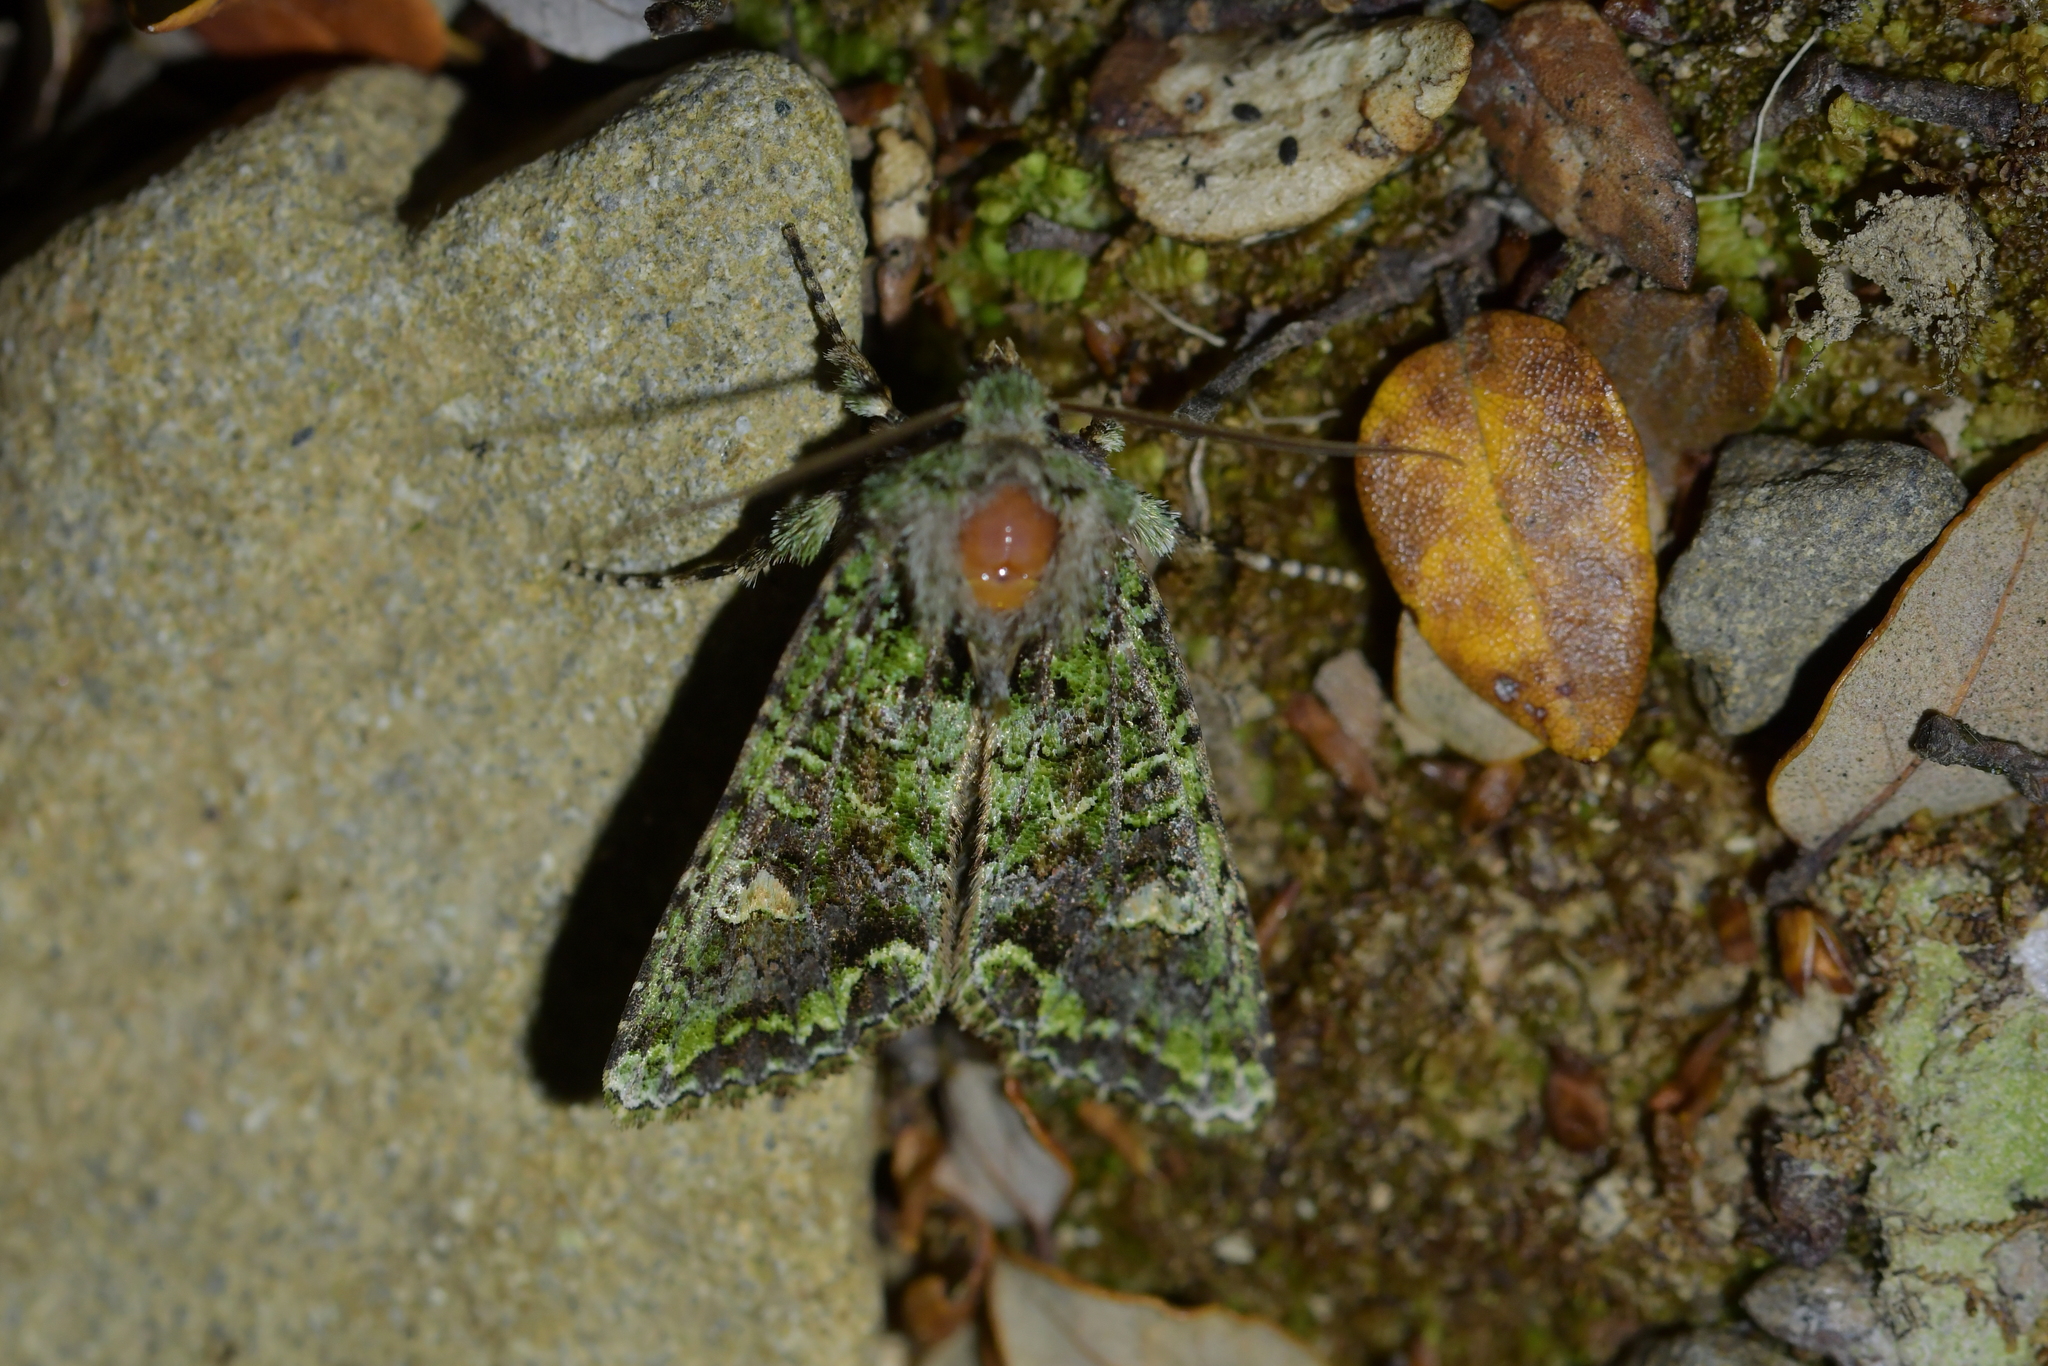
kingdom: Animalia
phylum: Arthropoda
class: Insecta
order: Lepidoptera
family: Noctuidae
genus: Ichneutica
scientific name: Ichneutica
